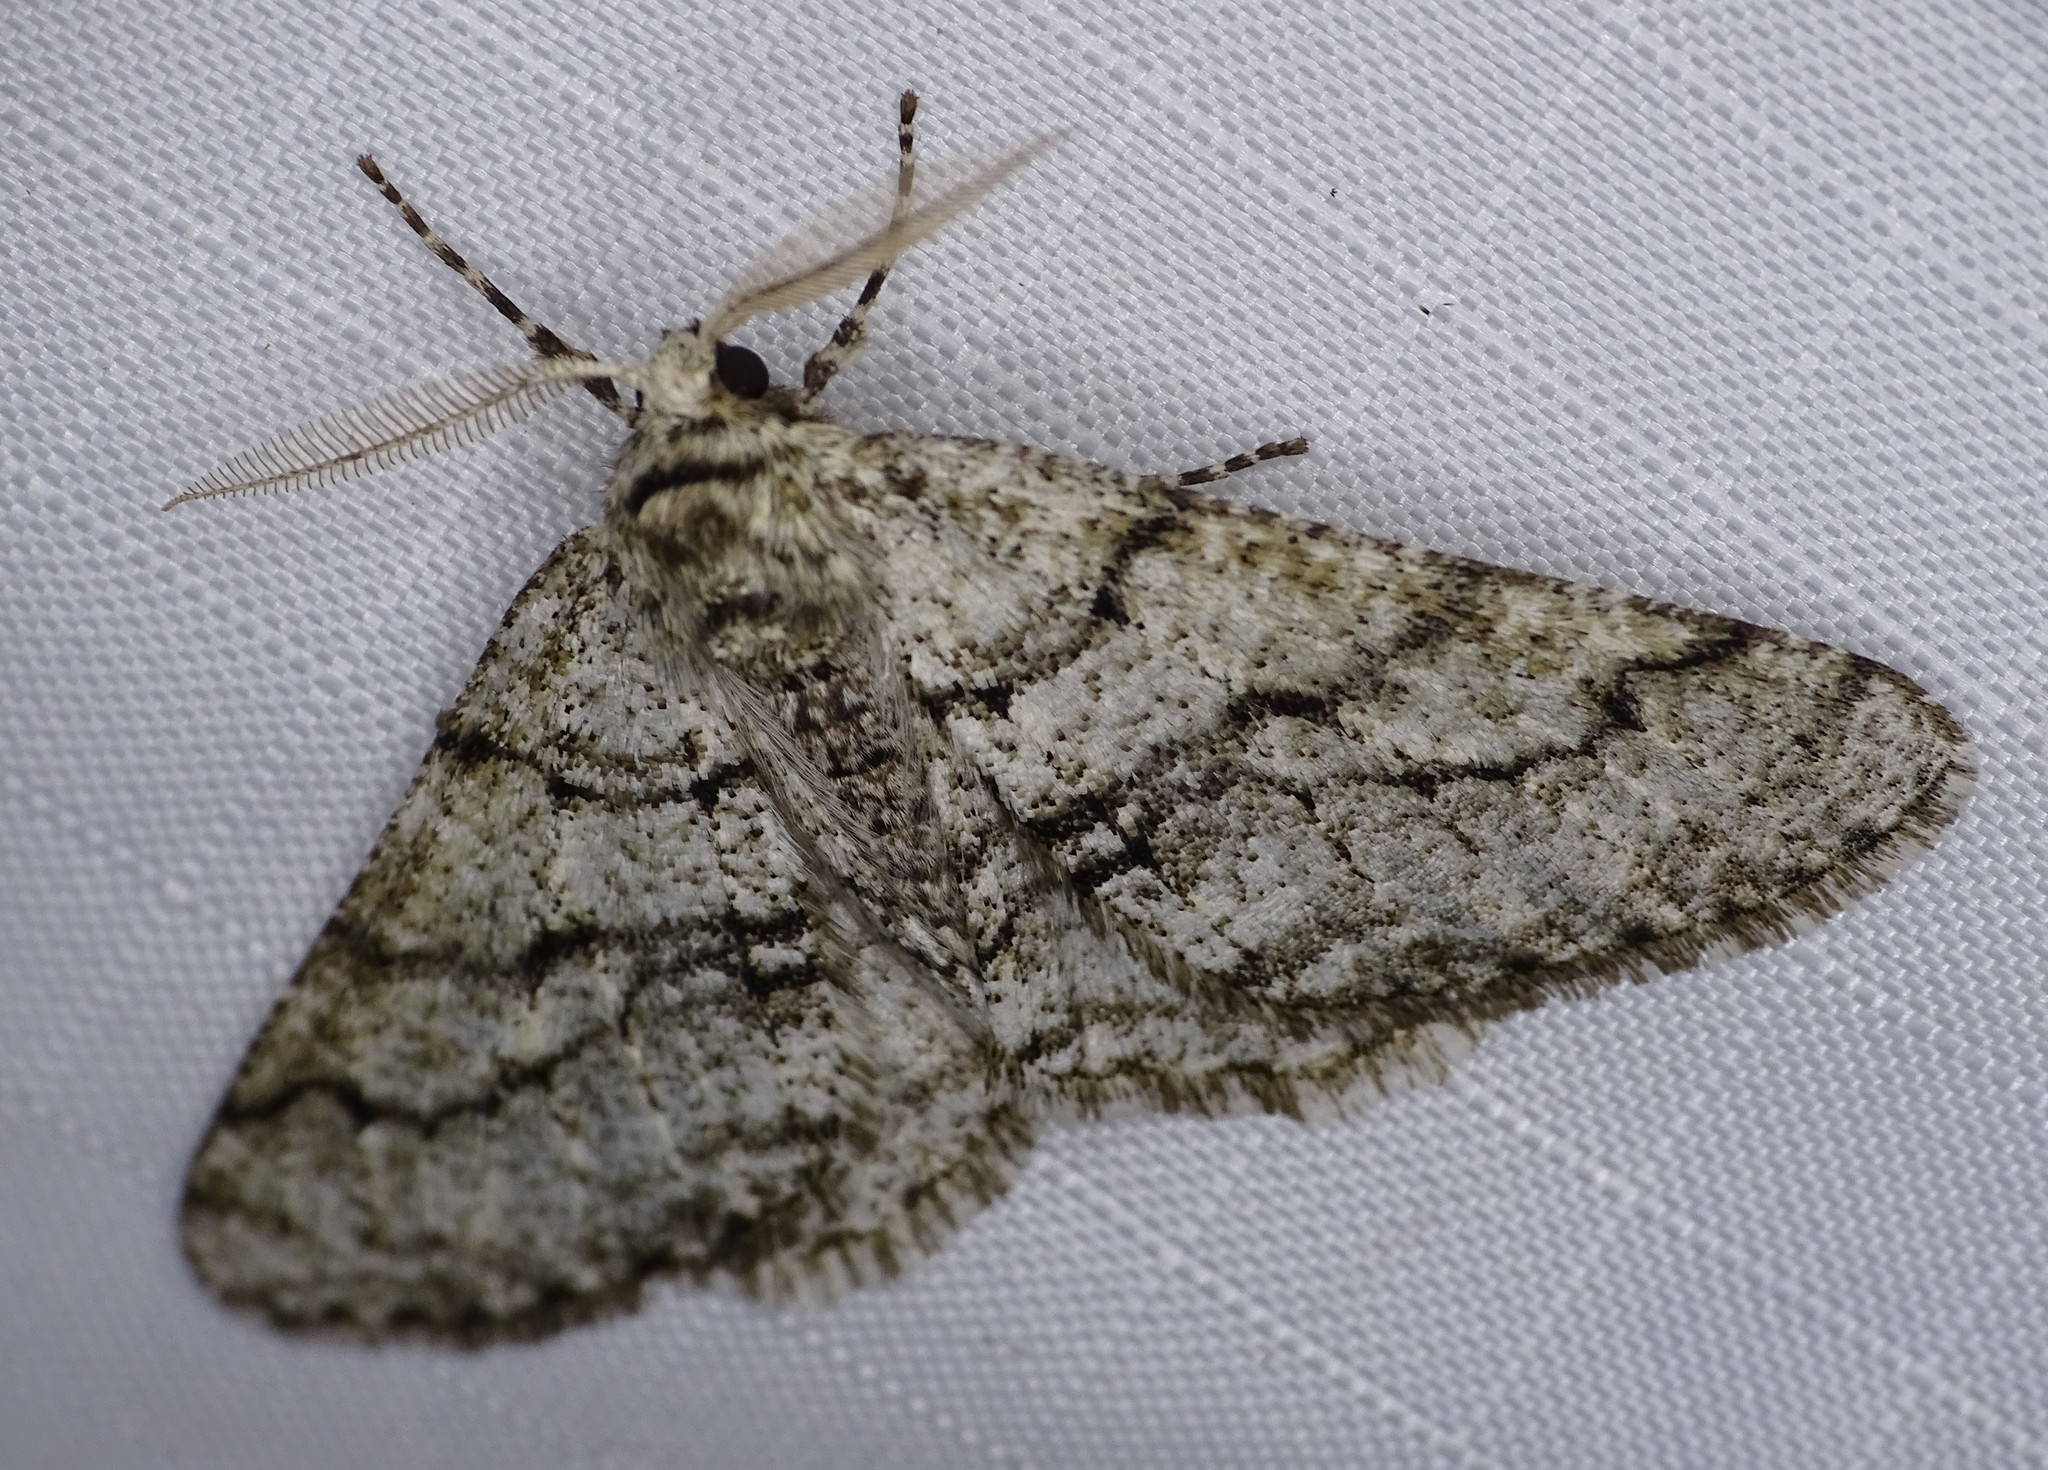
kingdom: Animalia
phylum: Arthropoda
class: Insecta
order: Lepidoptera
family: Geometridae
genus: Phigalia
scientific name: Phigalia titea
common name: Spiny looper
